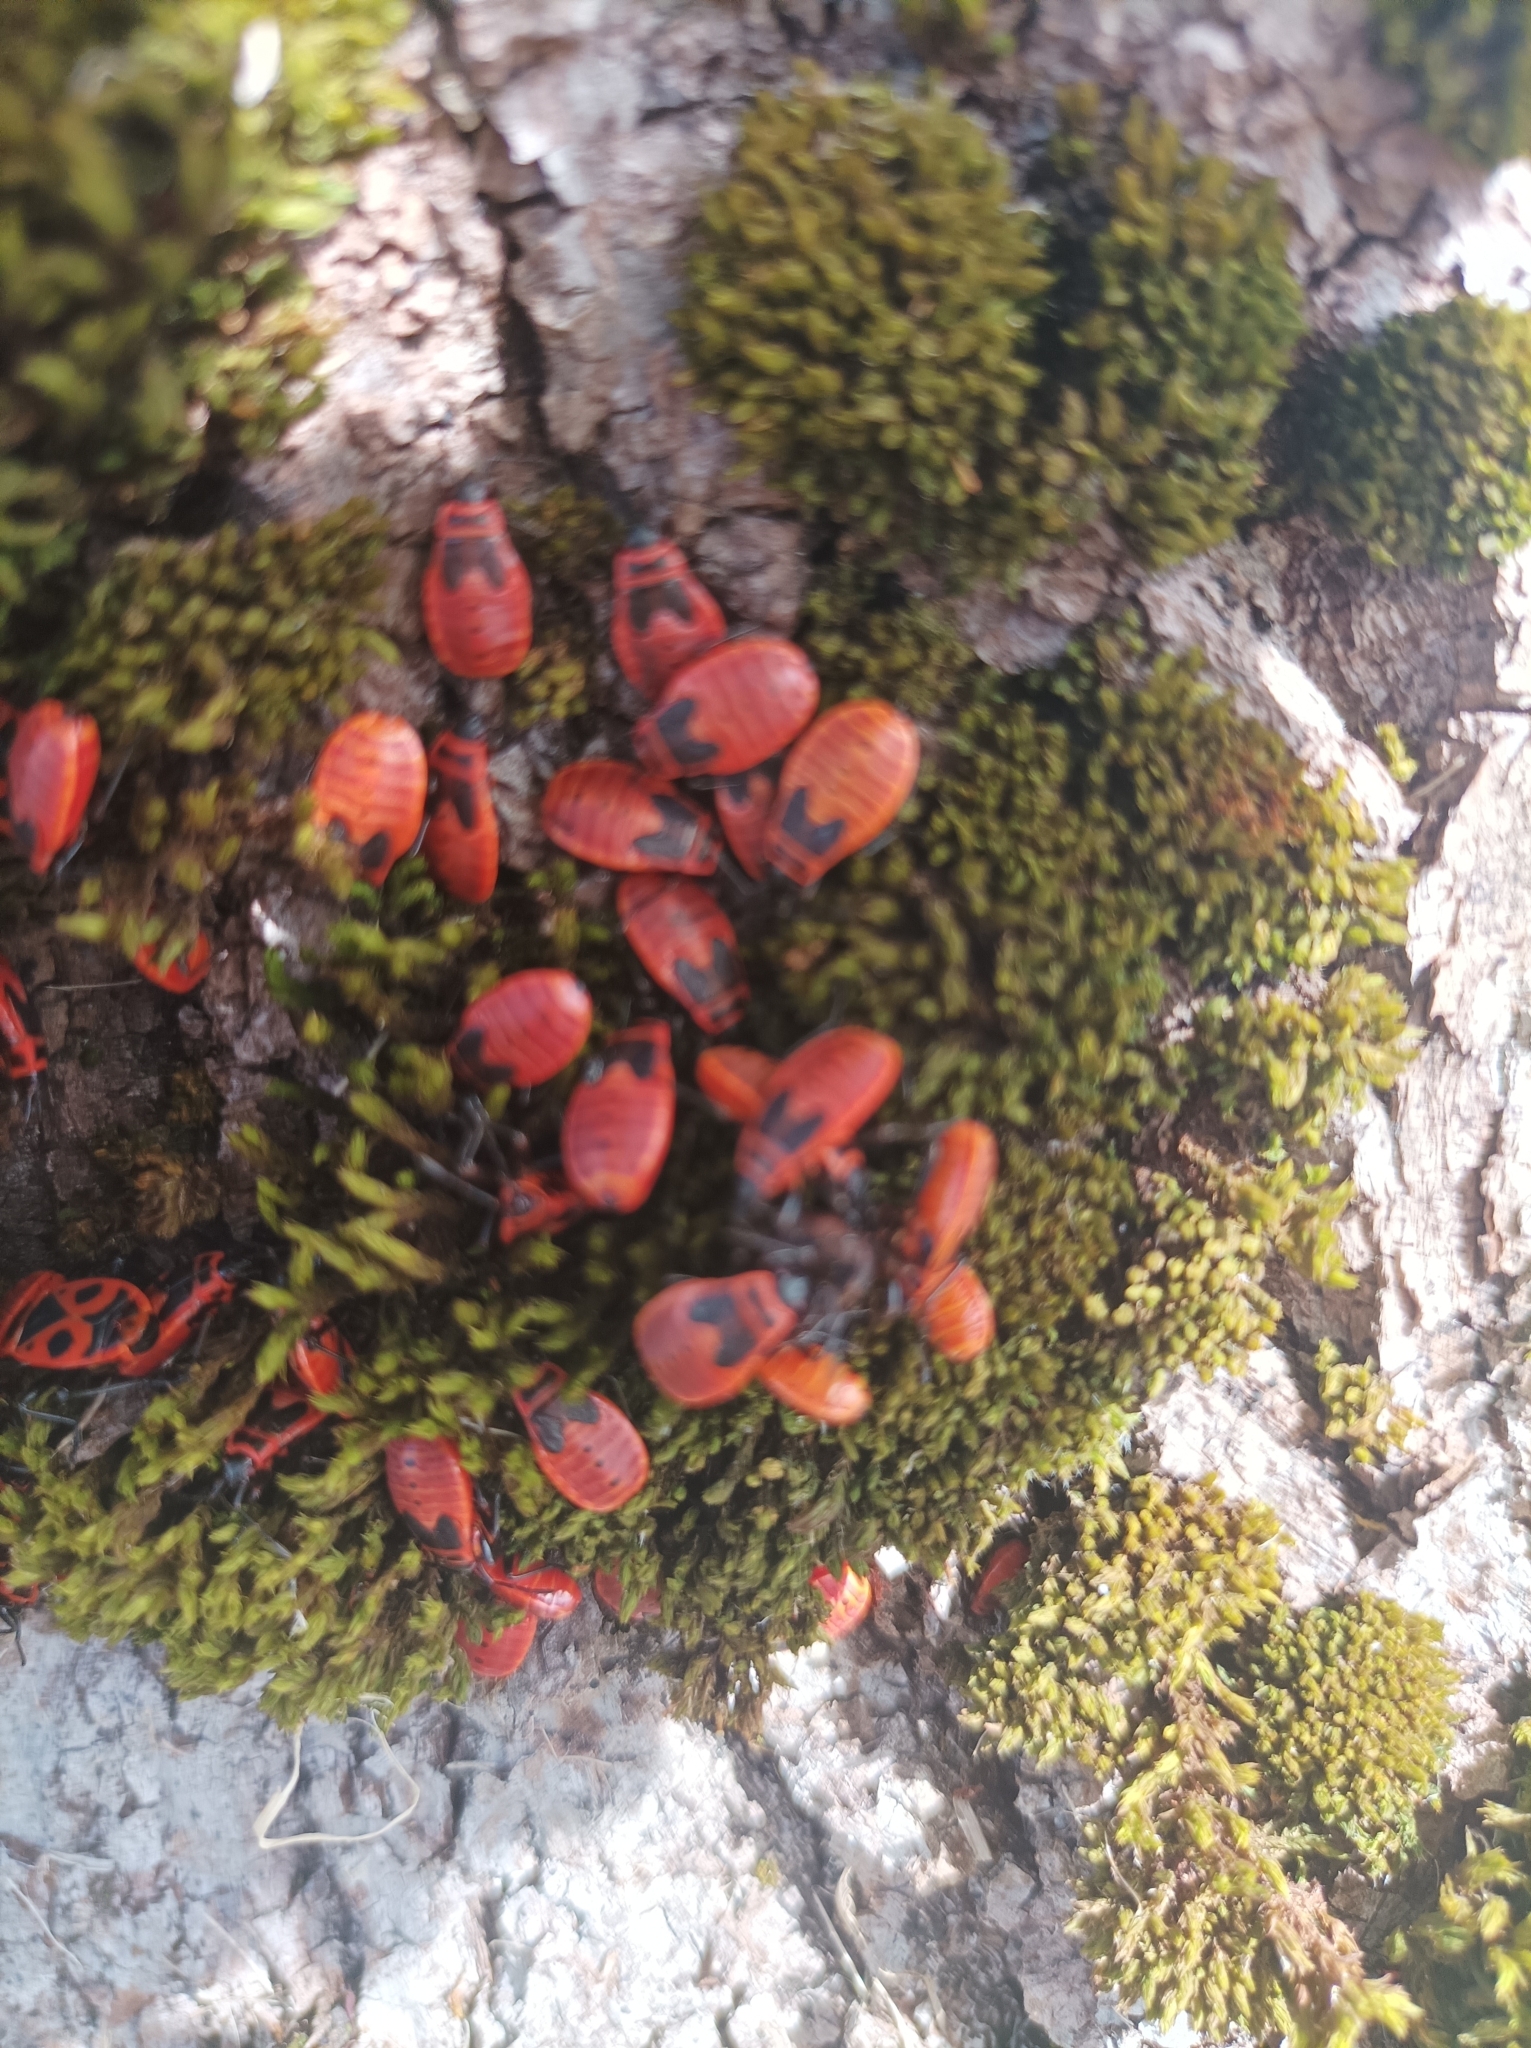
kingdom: Animalia
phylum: Arthropoda
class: Insecta
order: Hemiptera
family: Pyrrhocoridae
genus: Pyrrhocoris
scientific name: Pyrrhocoris apterus
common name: Firebug
